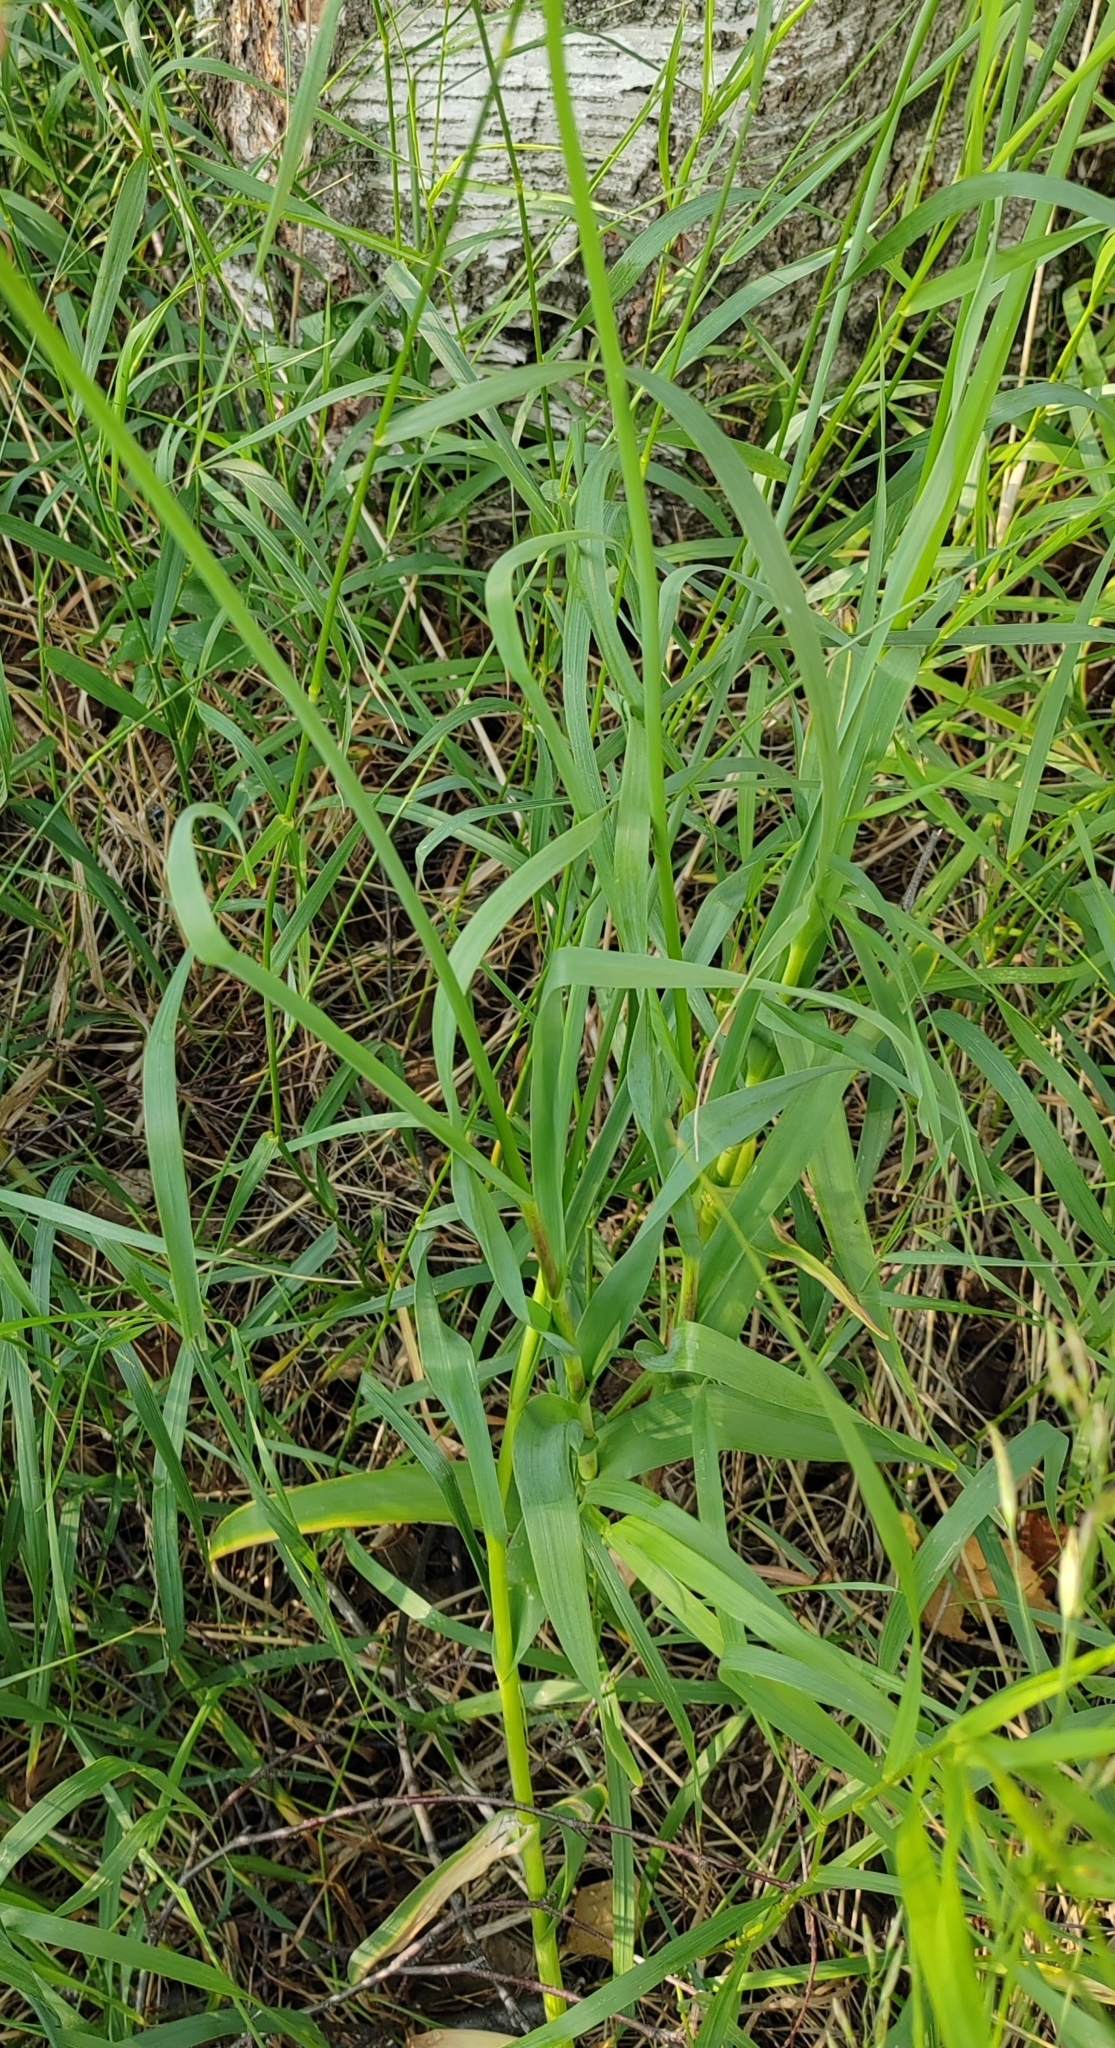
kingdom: Plantae
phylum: Tracheophyta
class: Liliopsida
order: Asparagales
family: Amaryllidaceae
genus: Allium
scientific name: Allium obliquum
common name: Oblique onion
